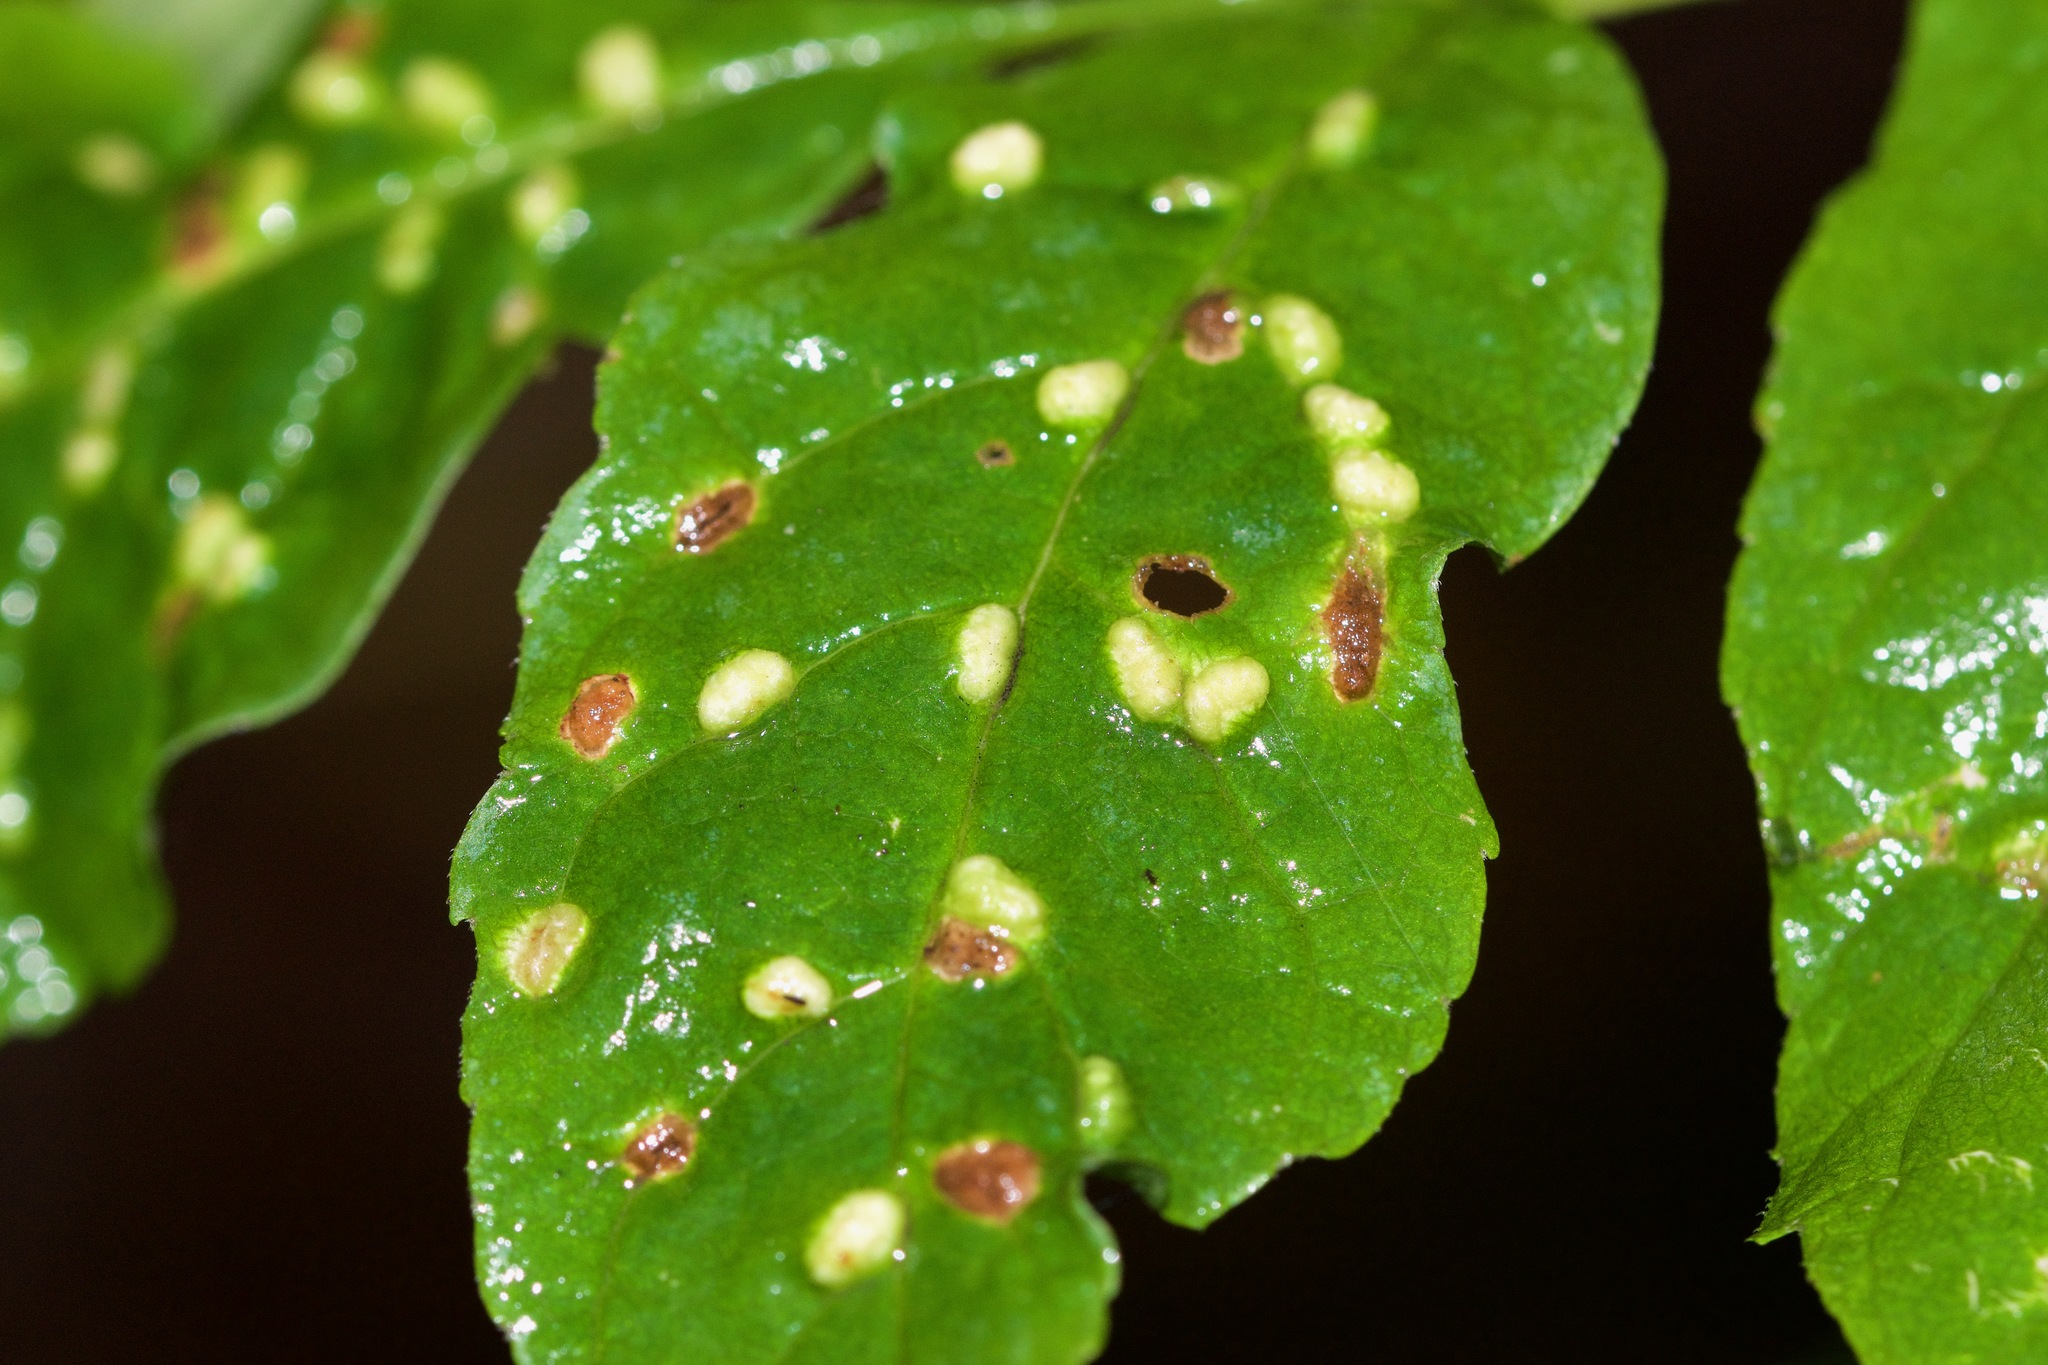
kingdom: Animalia
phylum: Arthropoda
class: Arachnida
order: Trombidiformes
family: Eriophyidae
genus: Aceria
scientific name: Aceria fraxinicola
